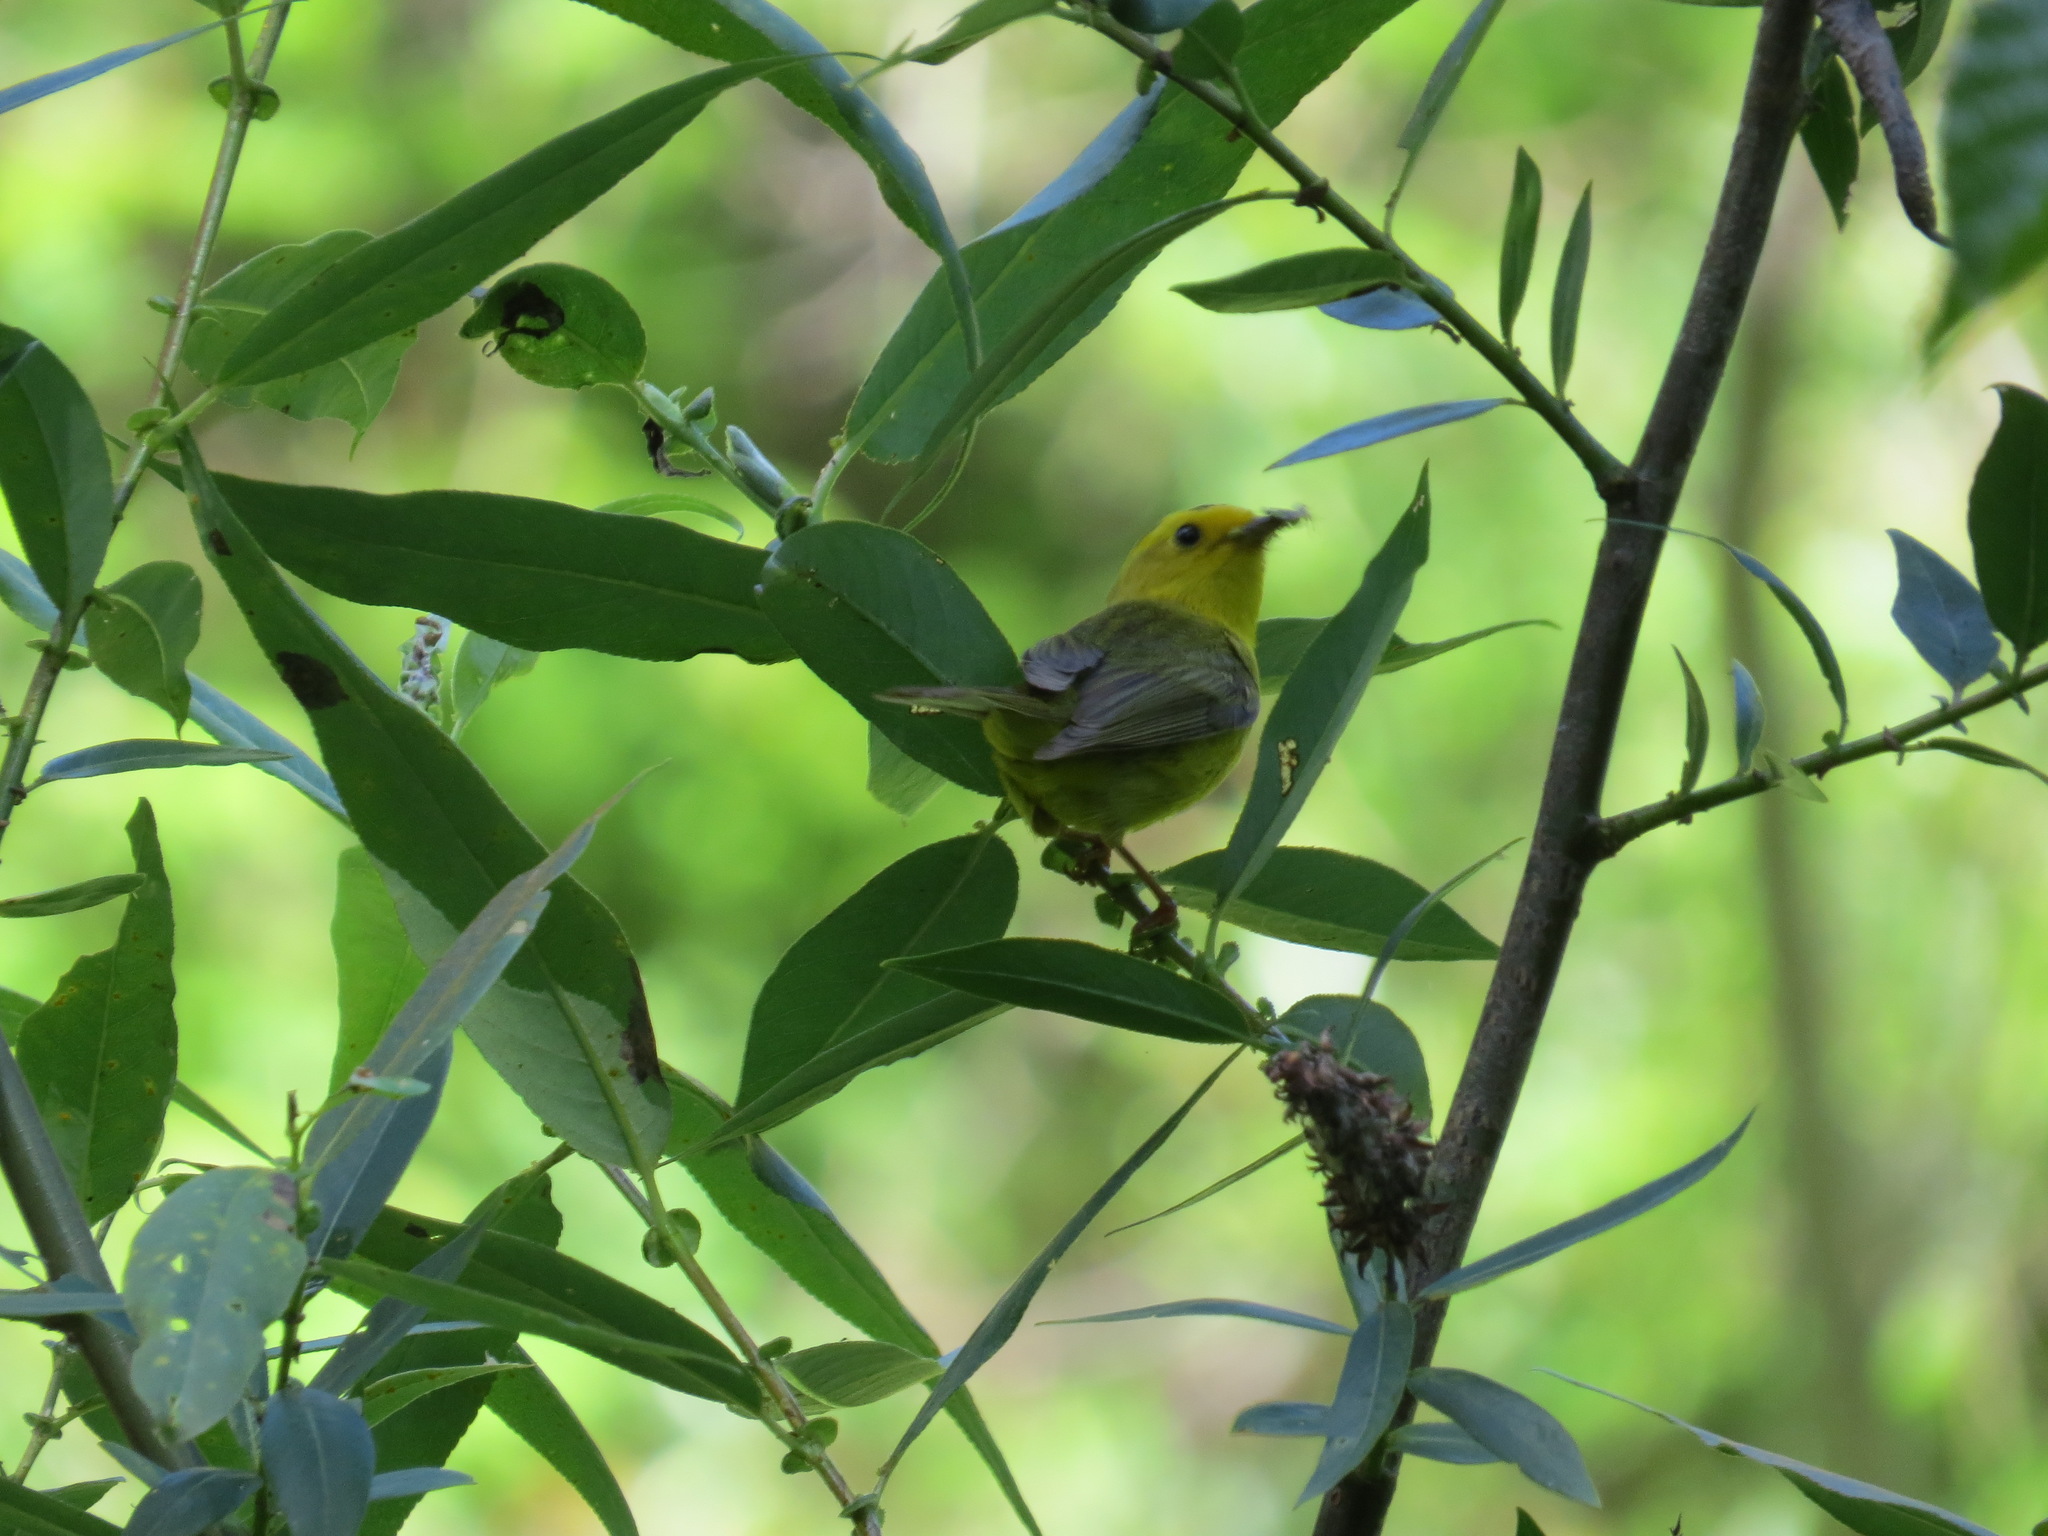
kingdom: Animalia
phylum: Chordata
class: Aves
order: Passeriformes
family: Parulidae
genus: Cardellina
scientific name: Cardellina pusilla
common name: Wilson's warbler
